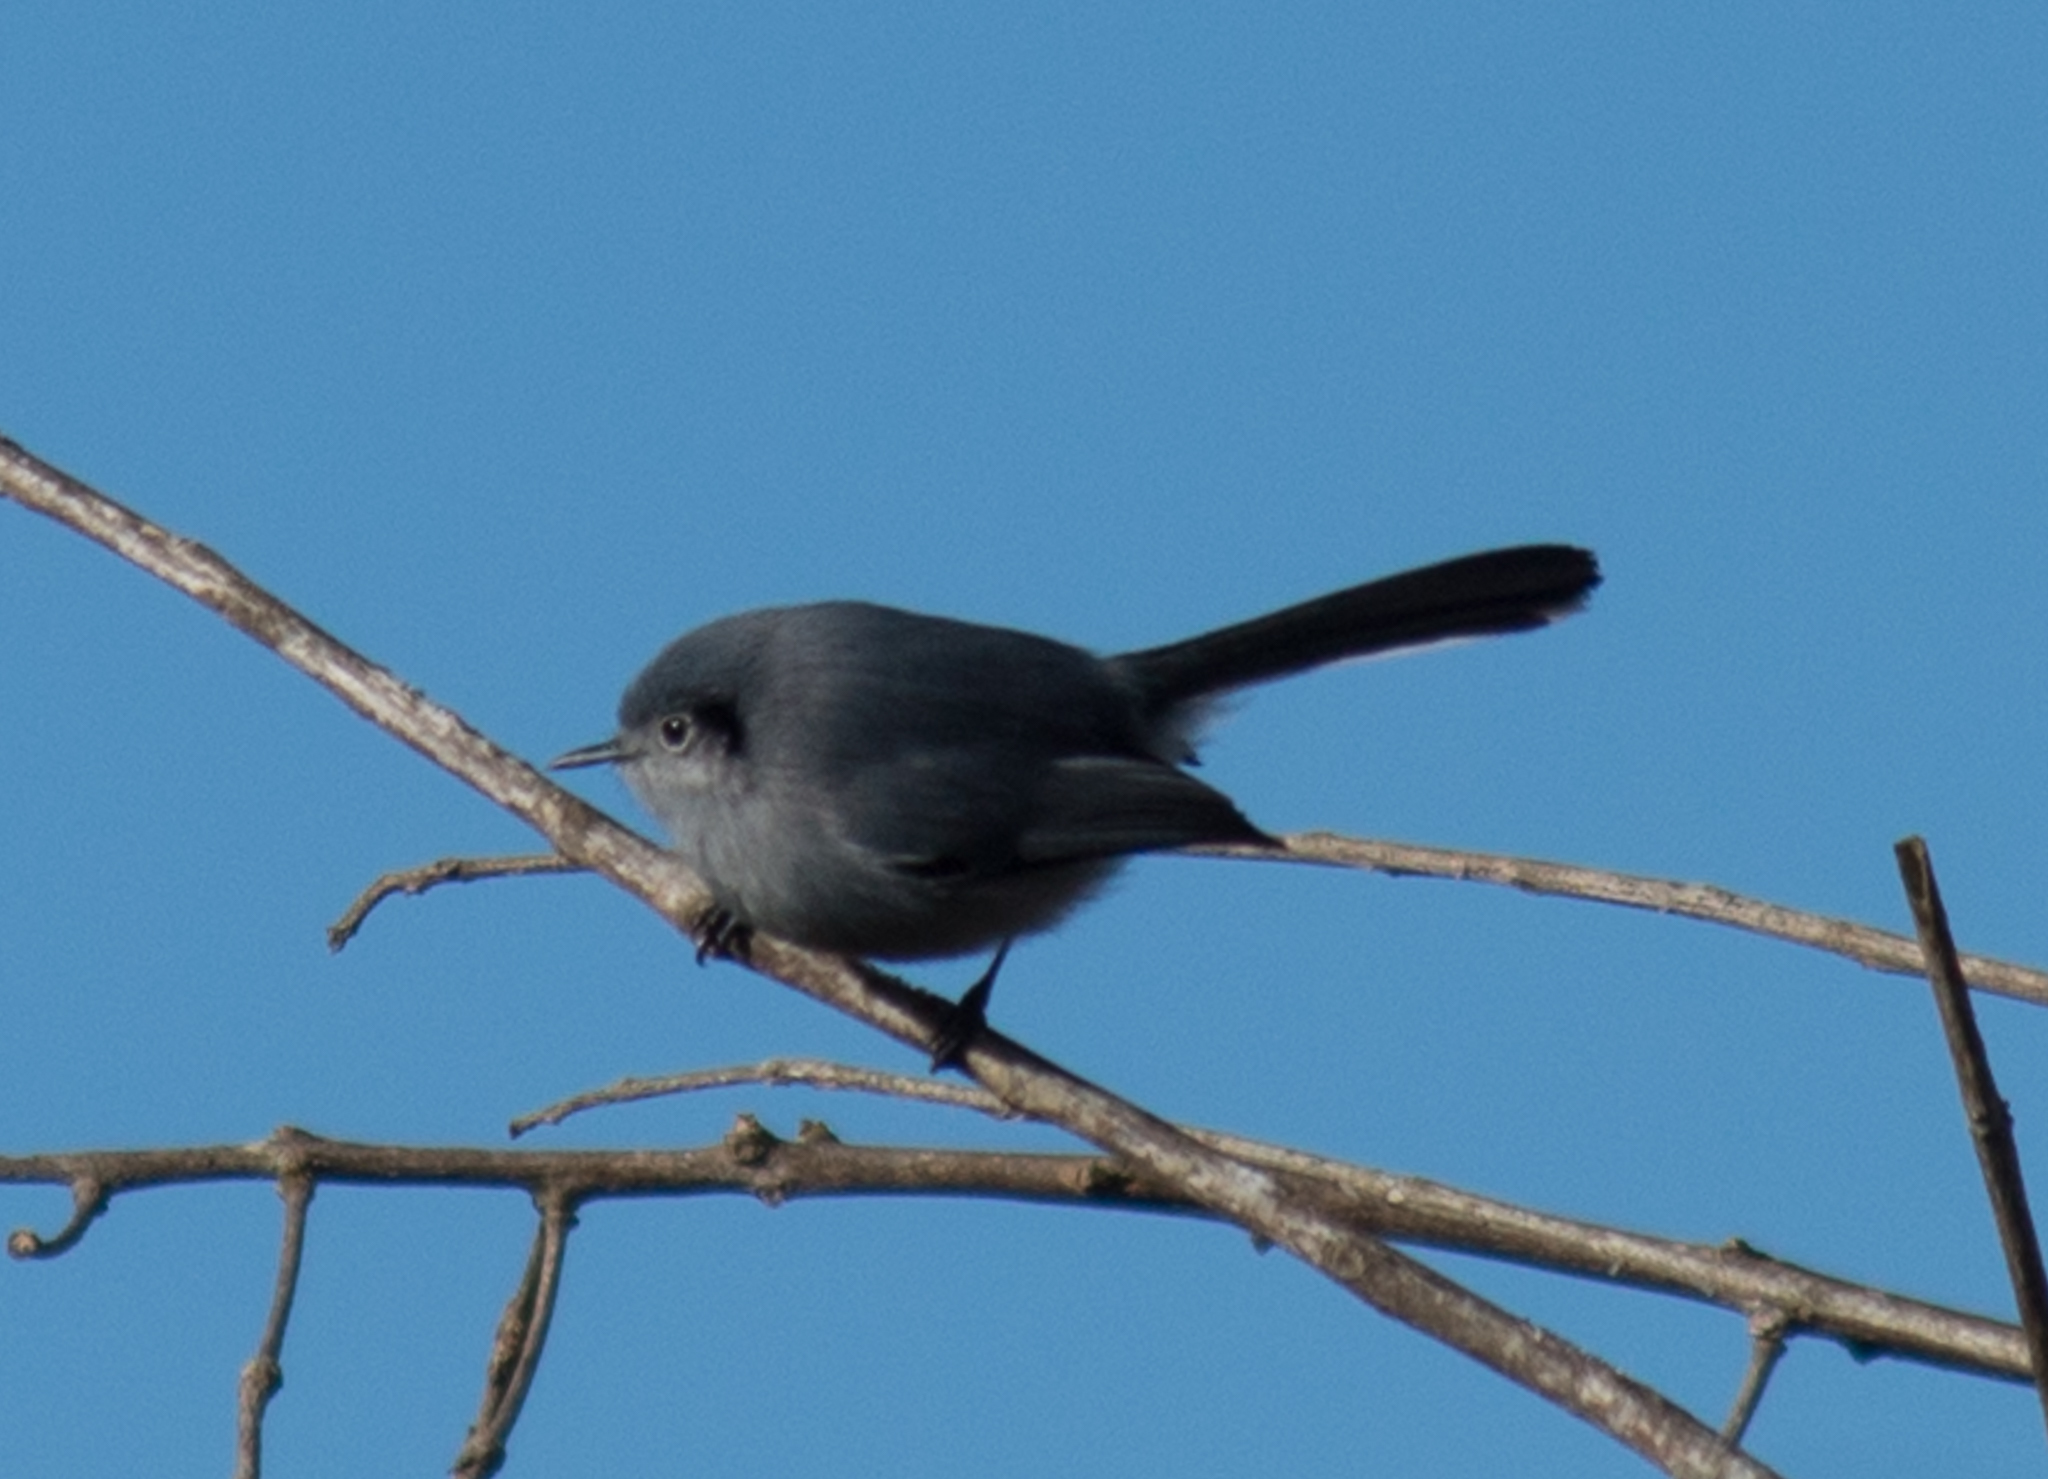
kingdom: Animalia
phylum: Chordata
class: Aves
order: Passeriformes
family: Polioptilidae
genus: Polioptila
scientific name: Polioptila dumicola
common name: Masked gnatcatcher
